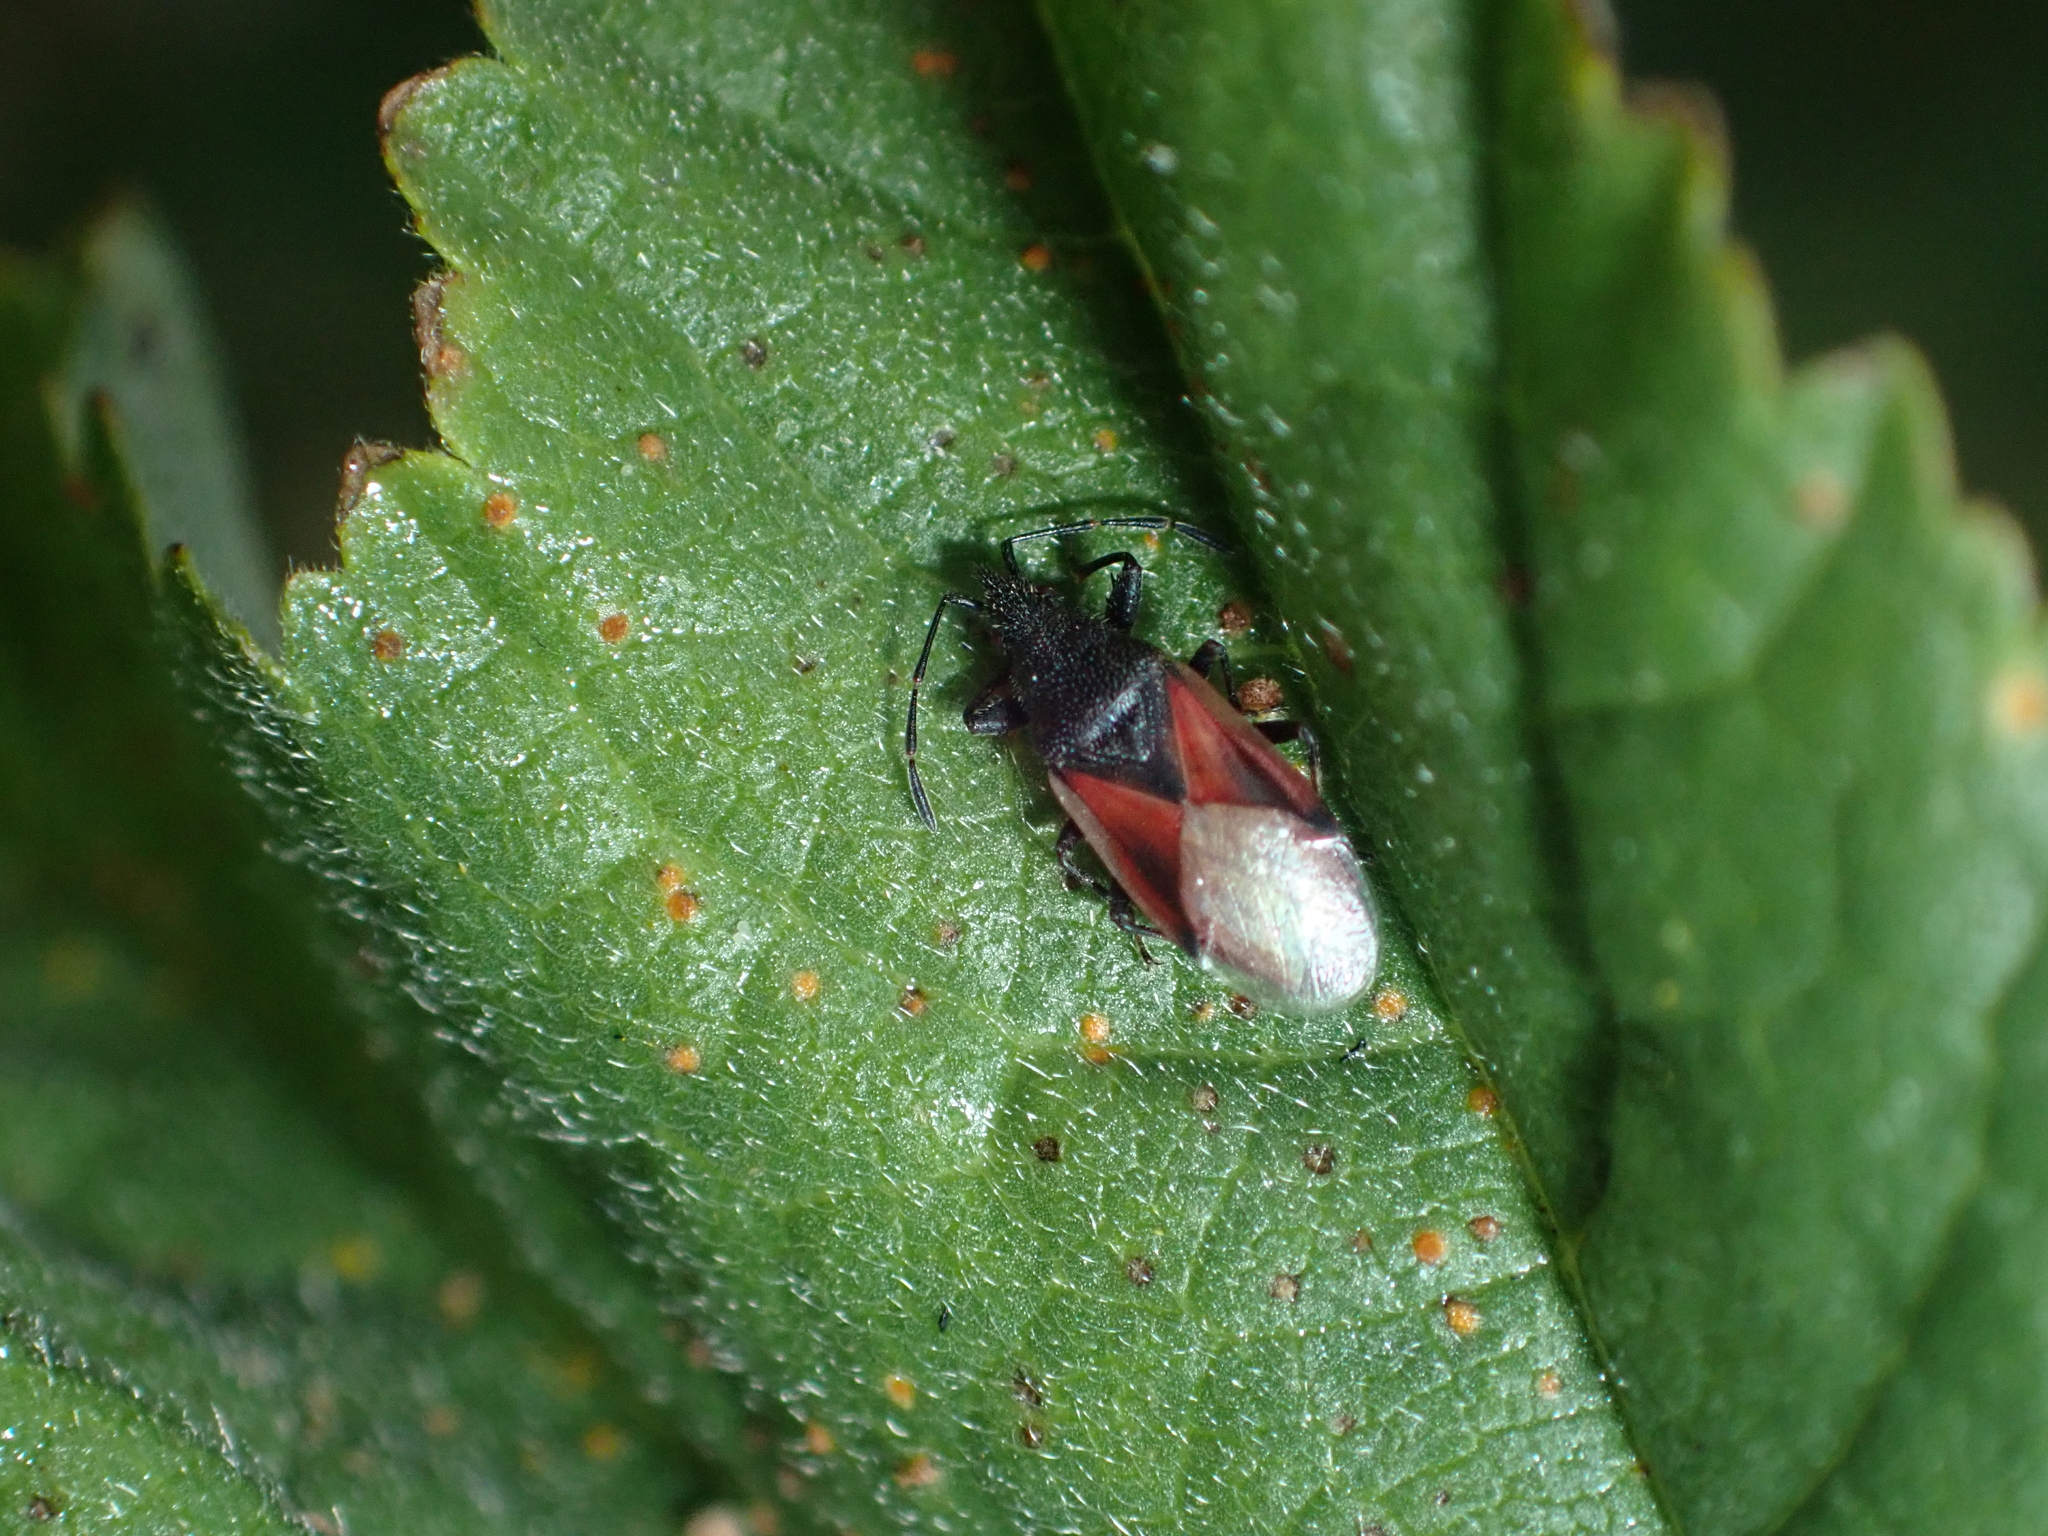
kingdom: Animalia
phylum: Arthropoda
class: Insecta
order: Hemiptera
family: Oxycarenidae
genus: Oxycarenus
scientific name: Oxycarenus lavaterae
